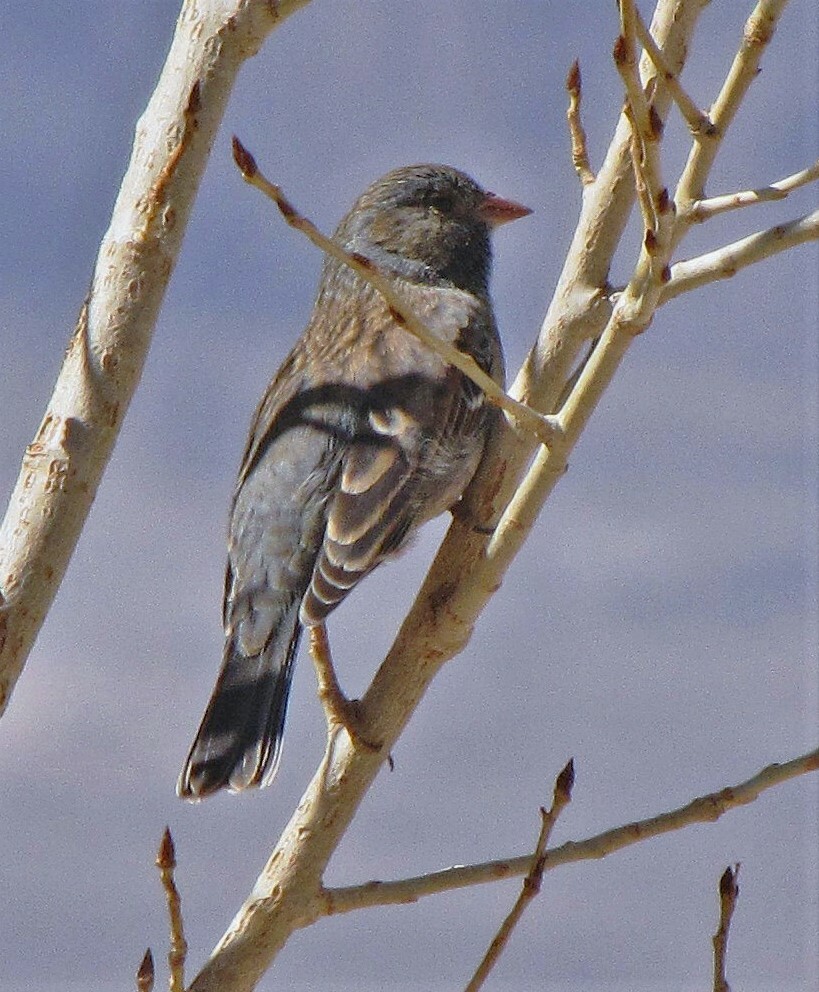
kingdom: Animalia
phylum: Chordata
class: Aves
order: Passeriformes
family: Thraupidae
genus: Porphyrospiza
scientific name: Porphyrospiza alaudina
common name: Band-tailed sierra finch
